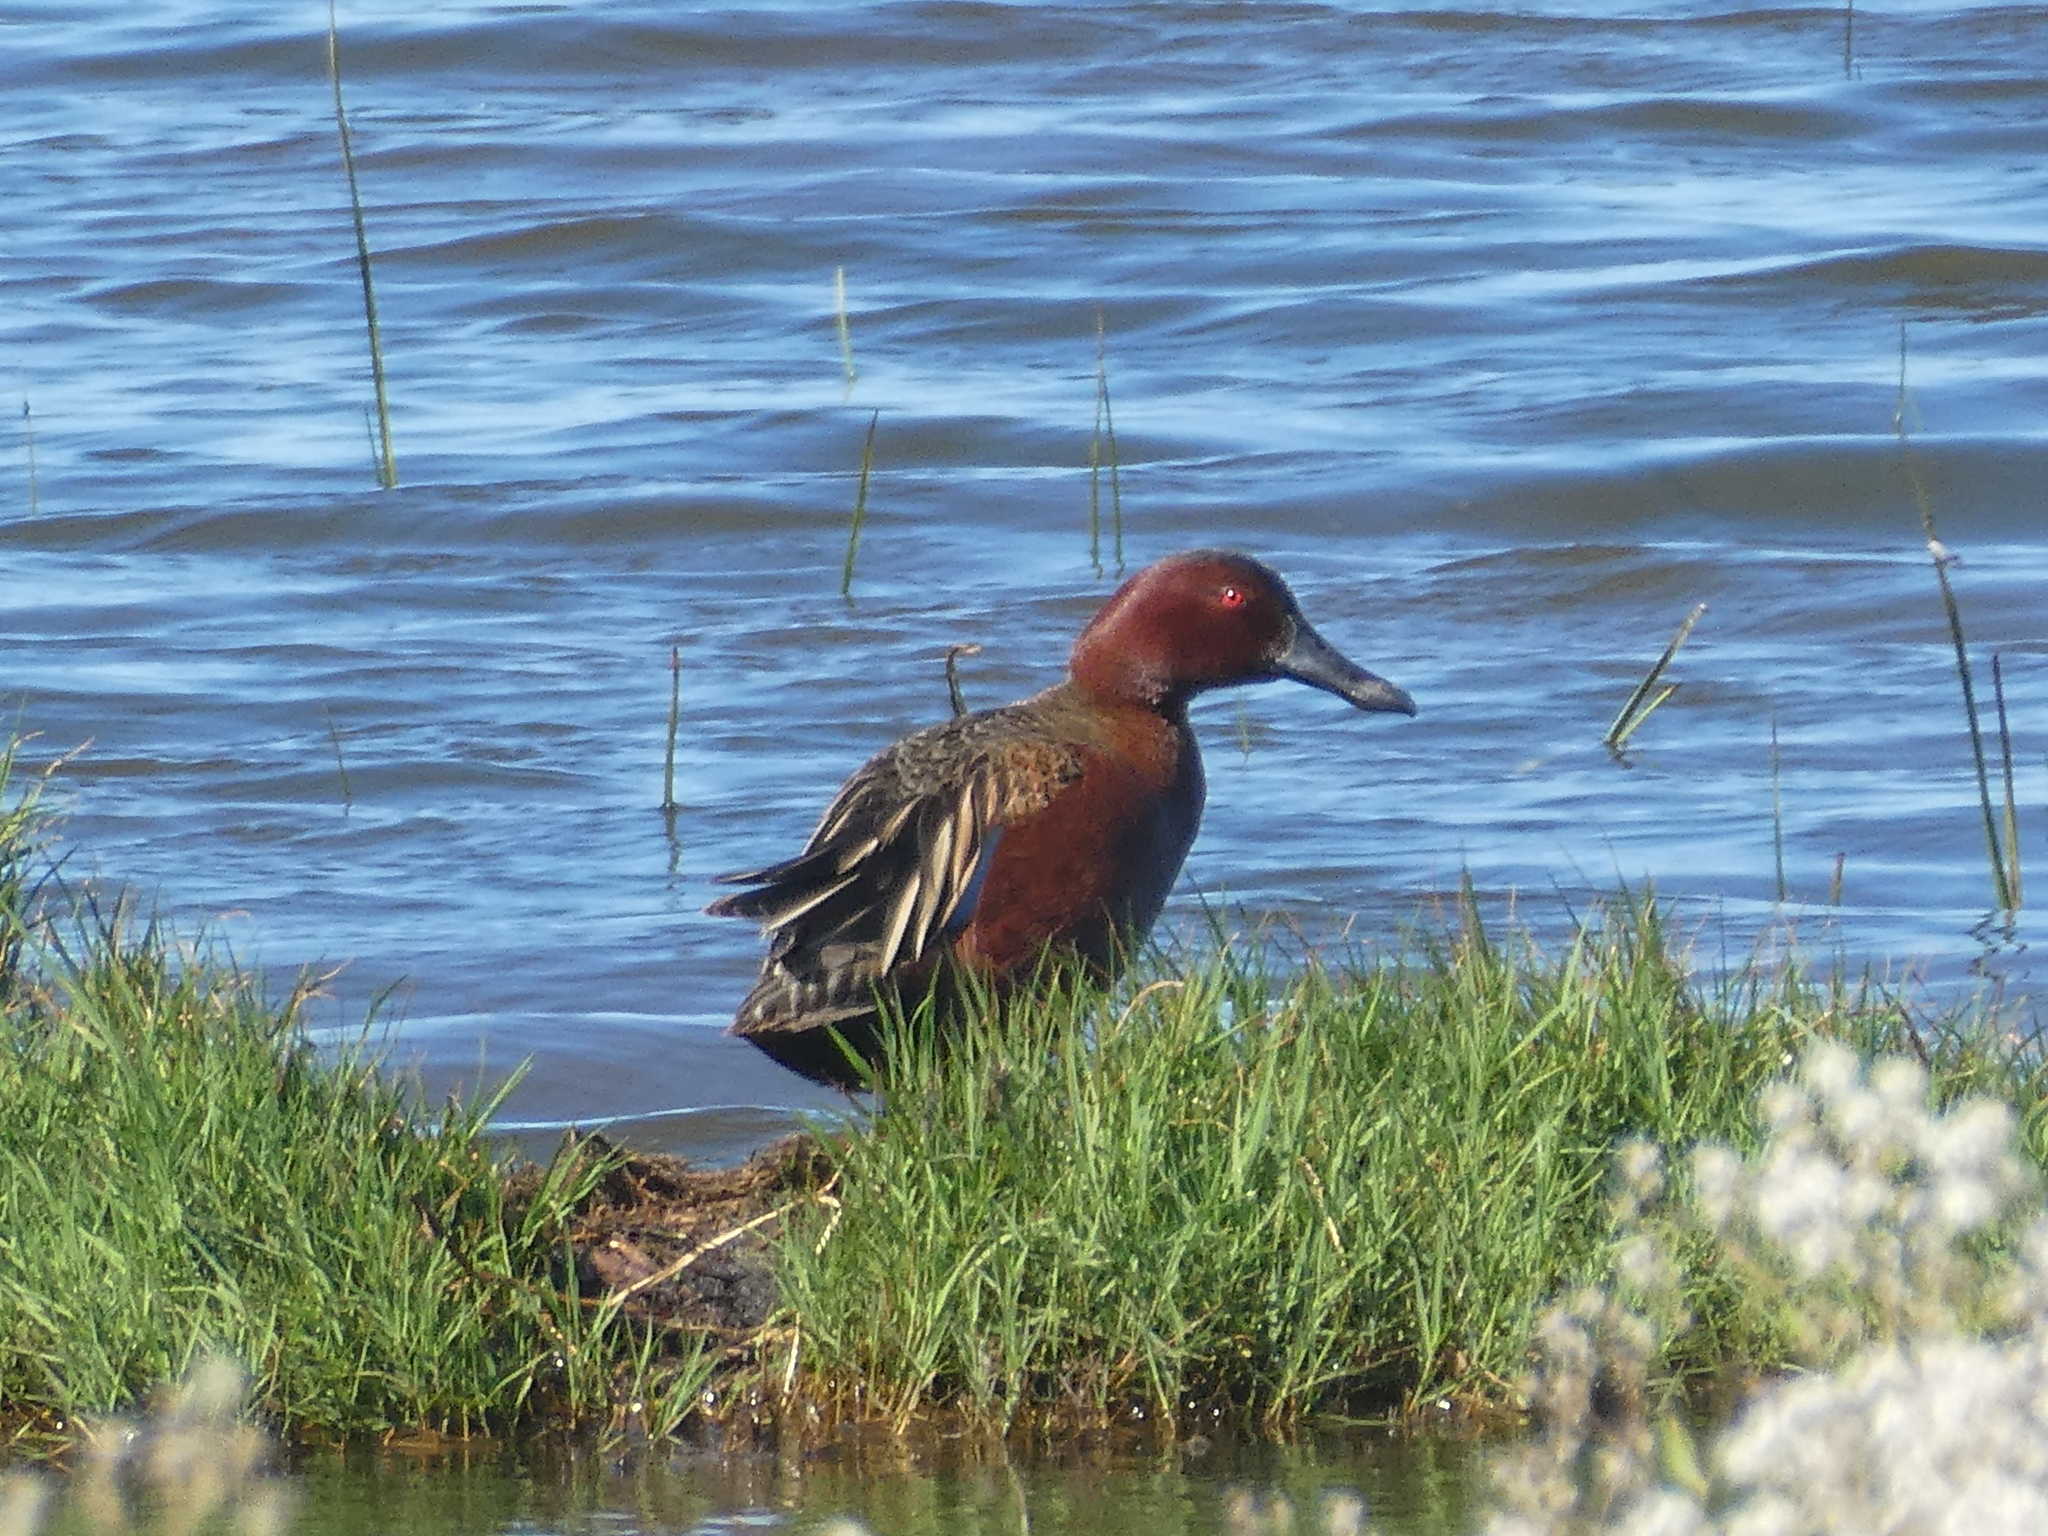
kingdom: Animalia
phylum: Chordata
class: Aves
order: Anseriformes
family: Anatidae
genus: Spatula
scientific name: Spatula cyanoptera
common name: Cinnamon teal
